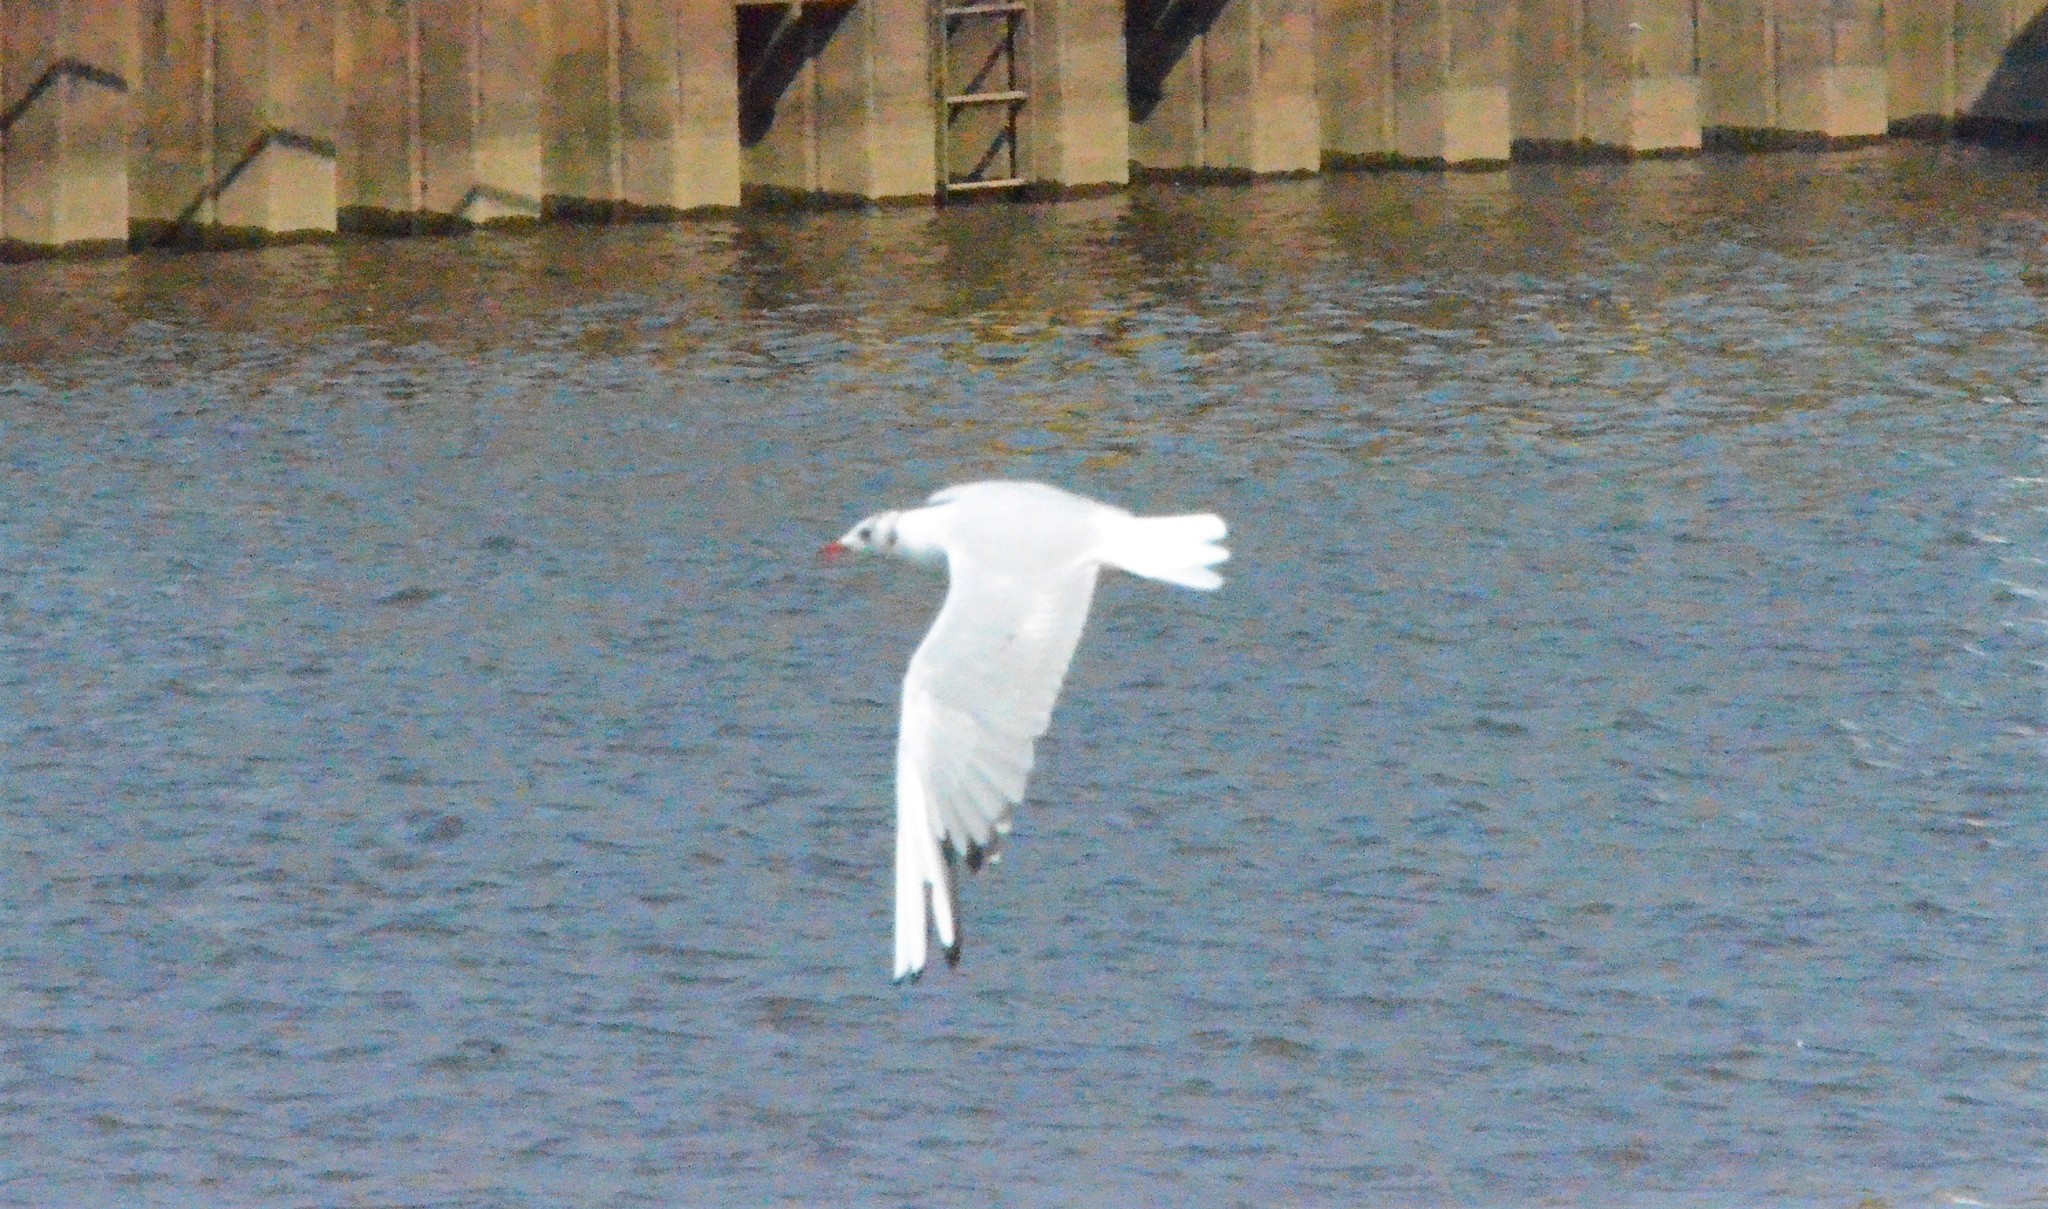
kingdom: Animalia
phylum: Chordata
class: Aves
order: Charadriiformes
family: Laridae
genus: Chroicocephalus
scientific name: Chroicocephalus ridibundus
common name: Black-headed gull
